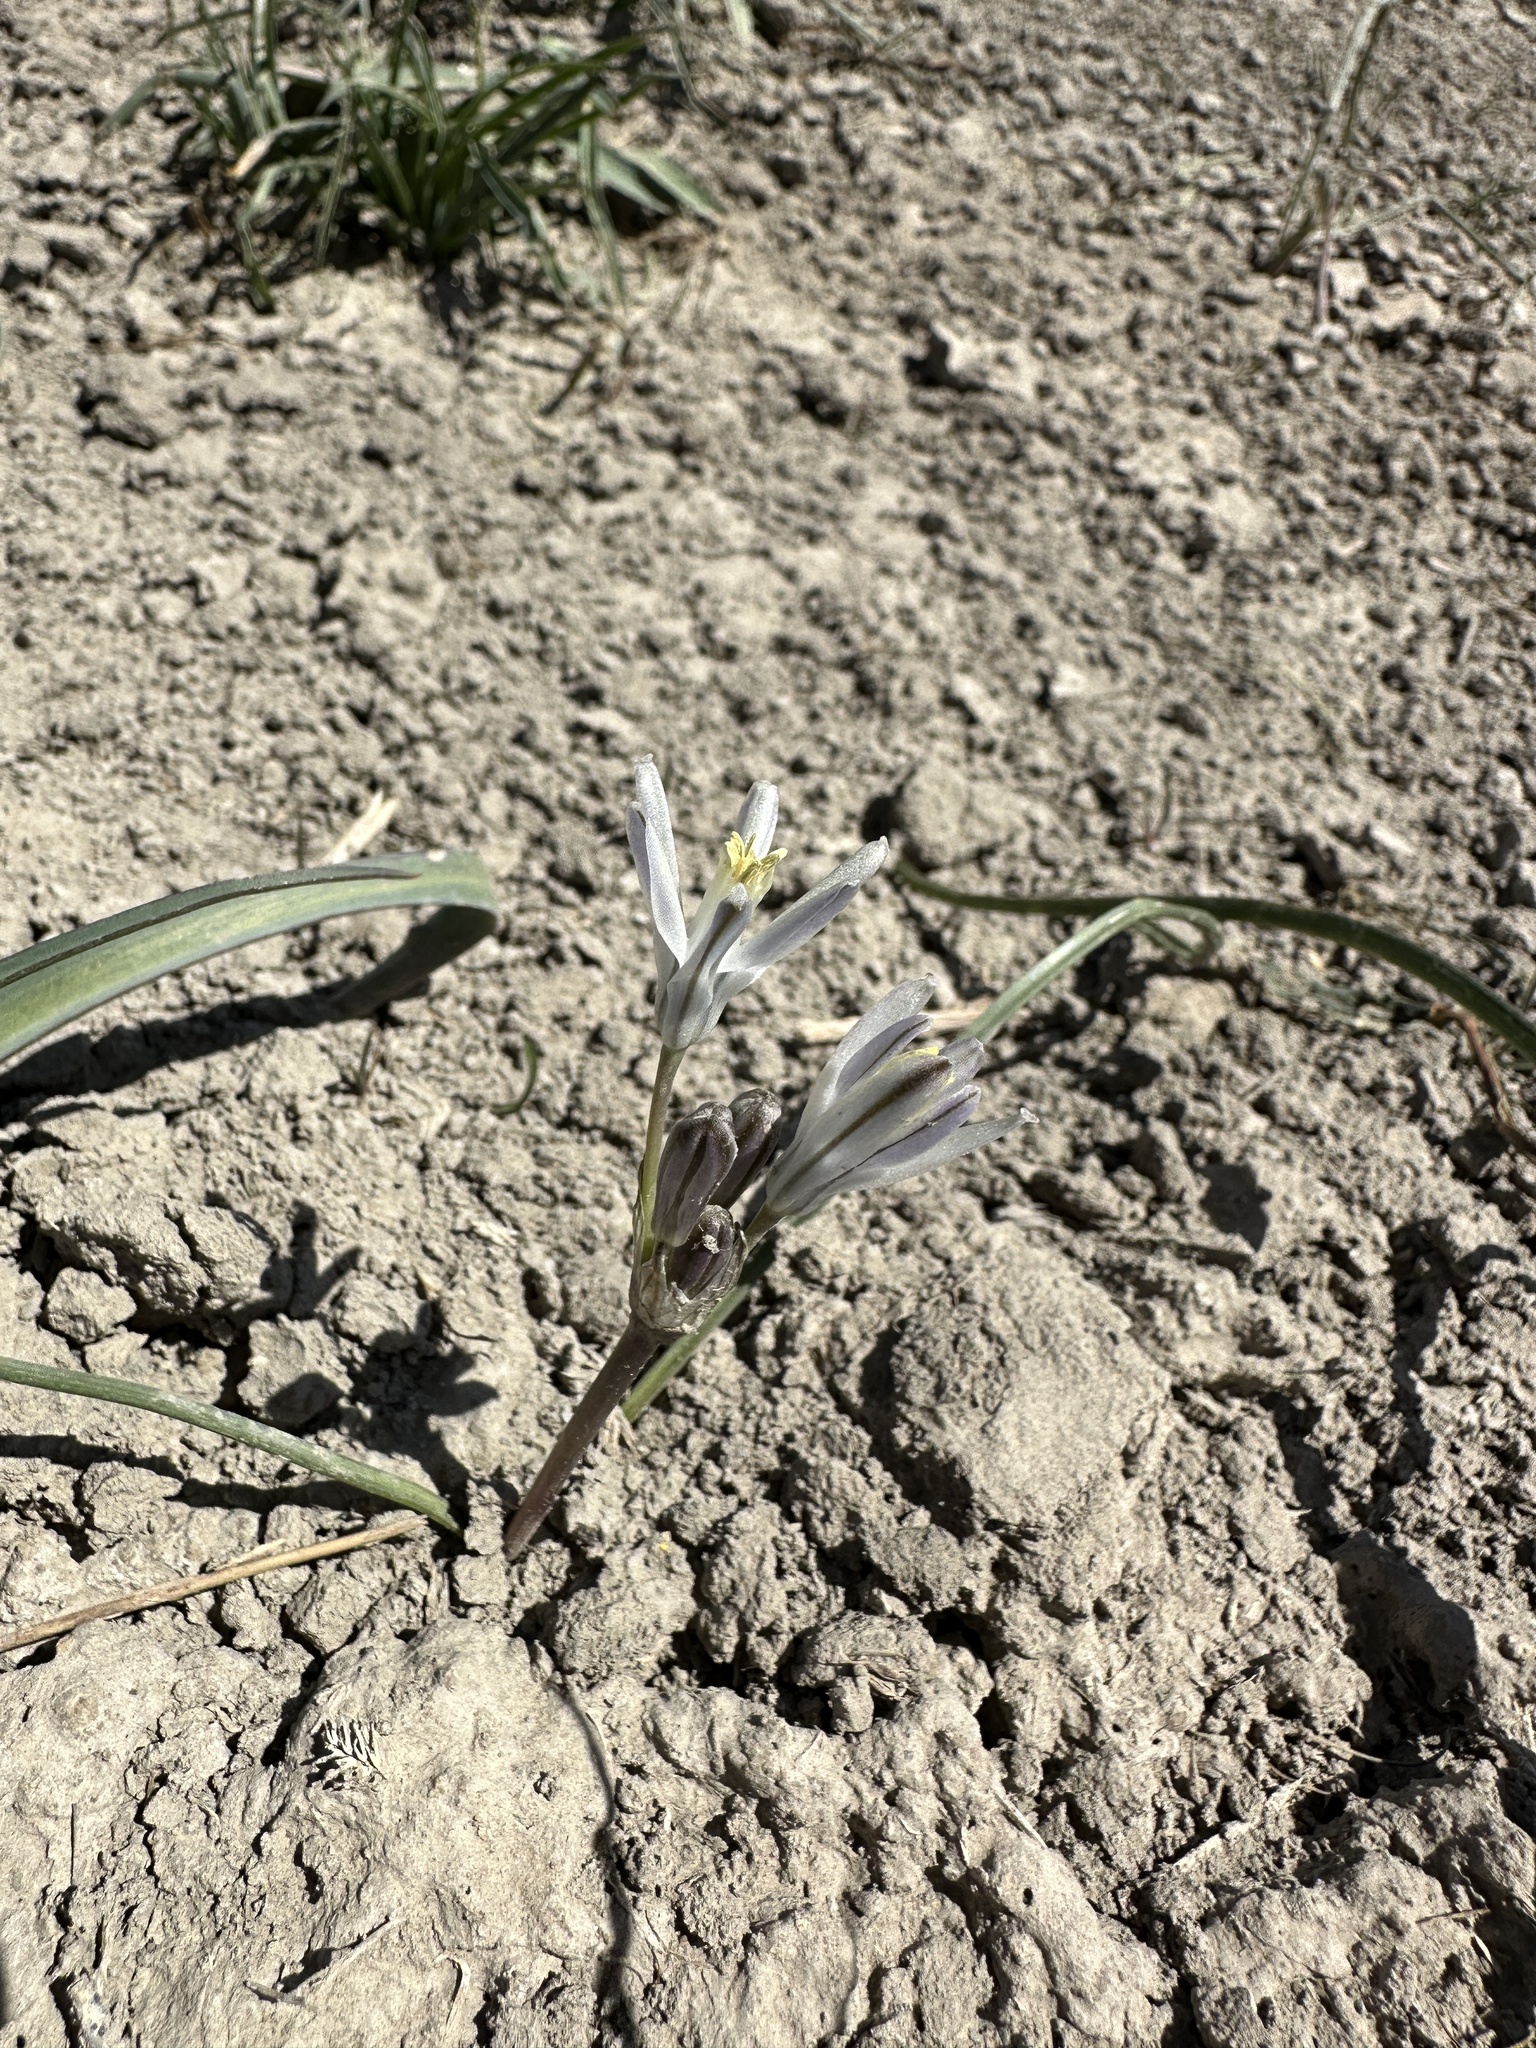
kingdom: Plantae
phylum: Tracheophyta
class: Liliopsida
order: Asparagales
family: Asparagaceae
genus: Androstephium
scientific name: Androstephium breviflorum
